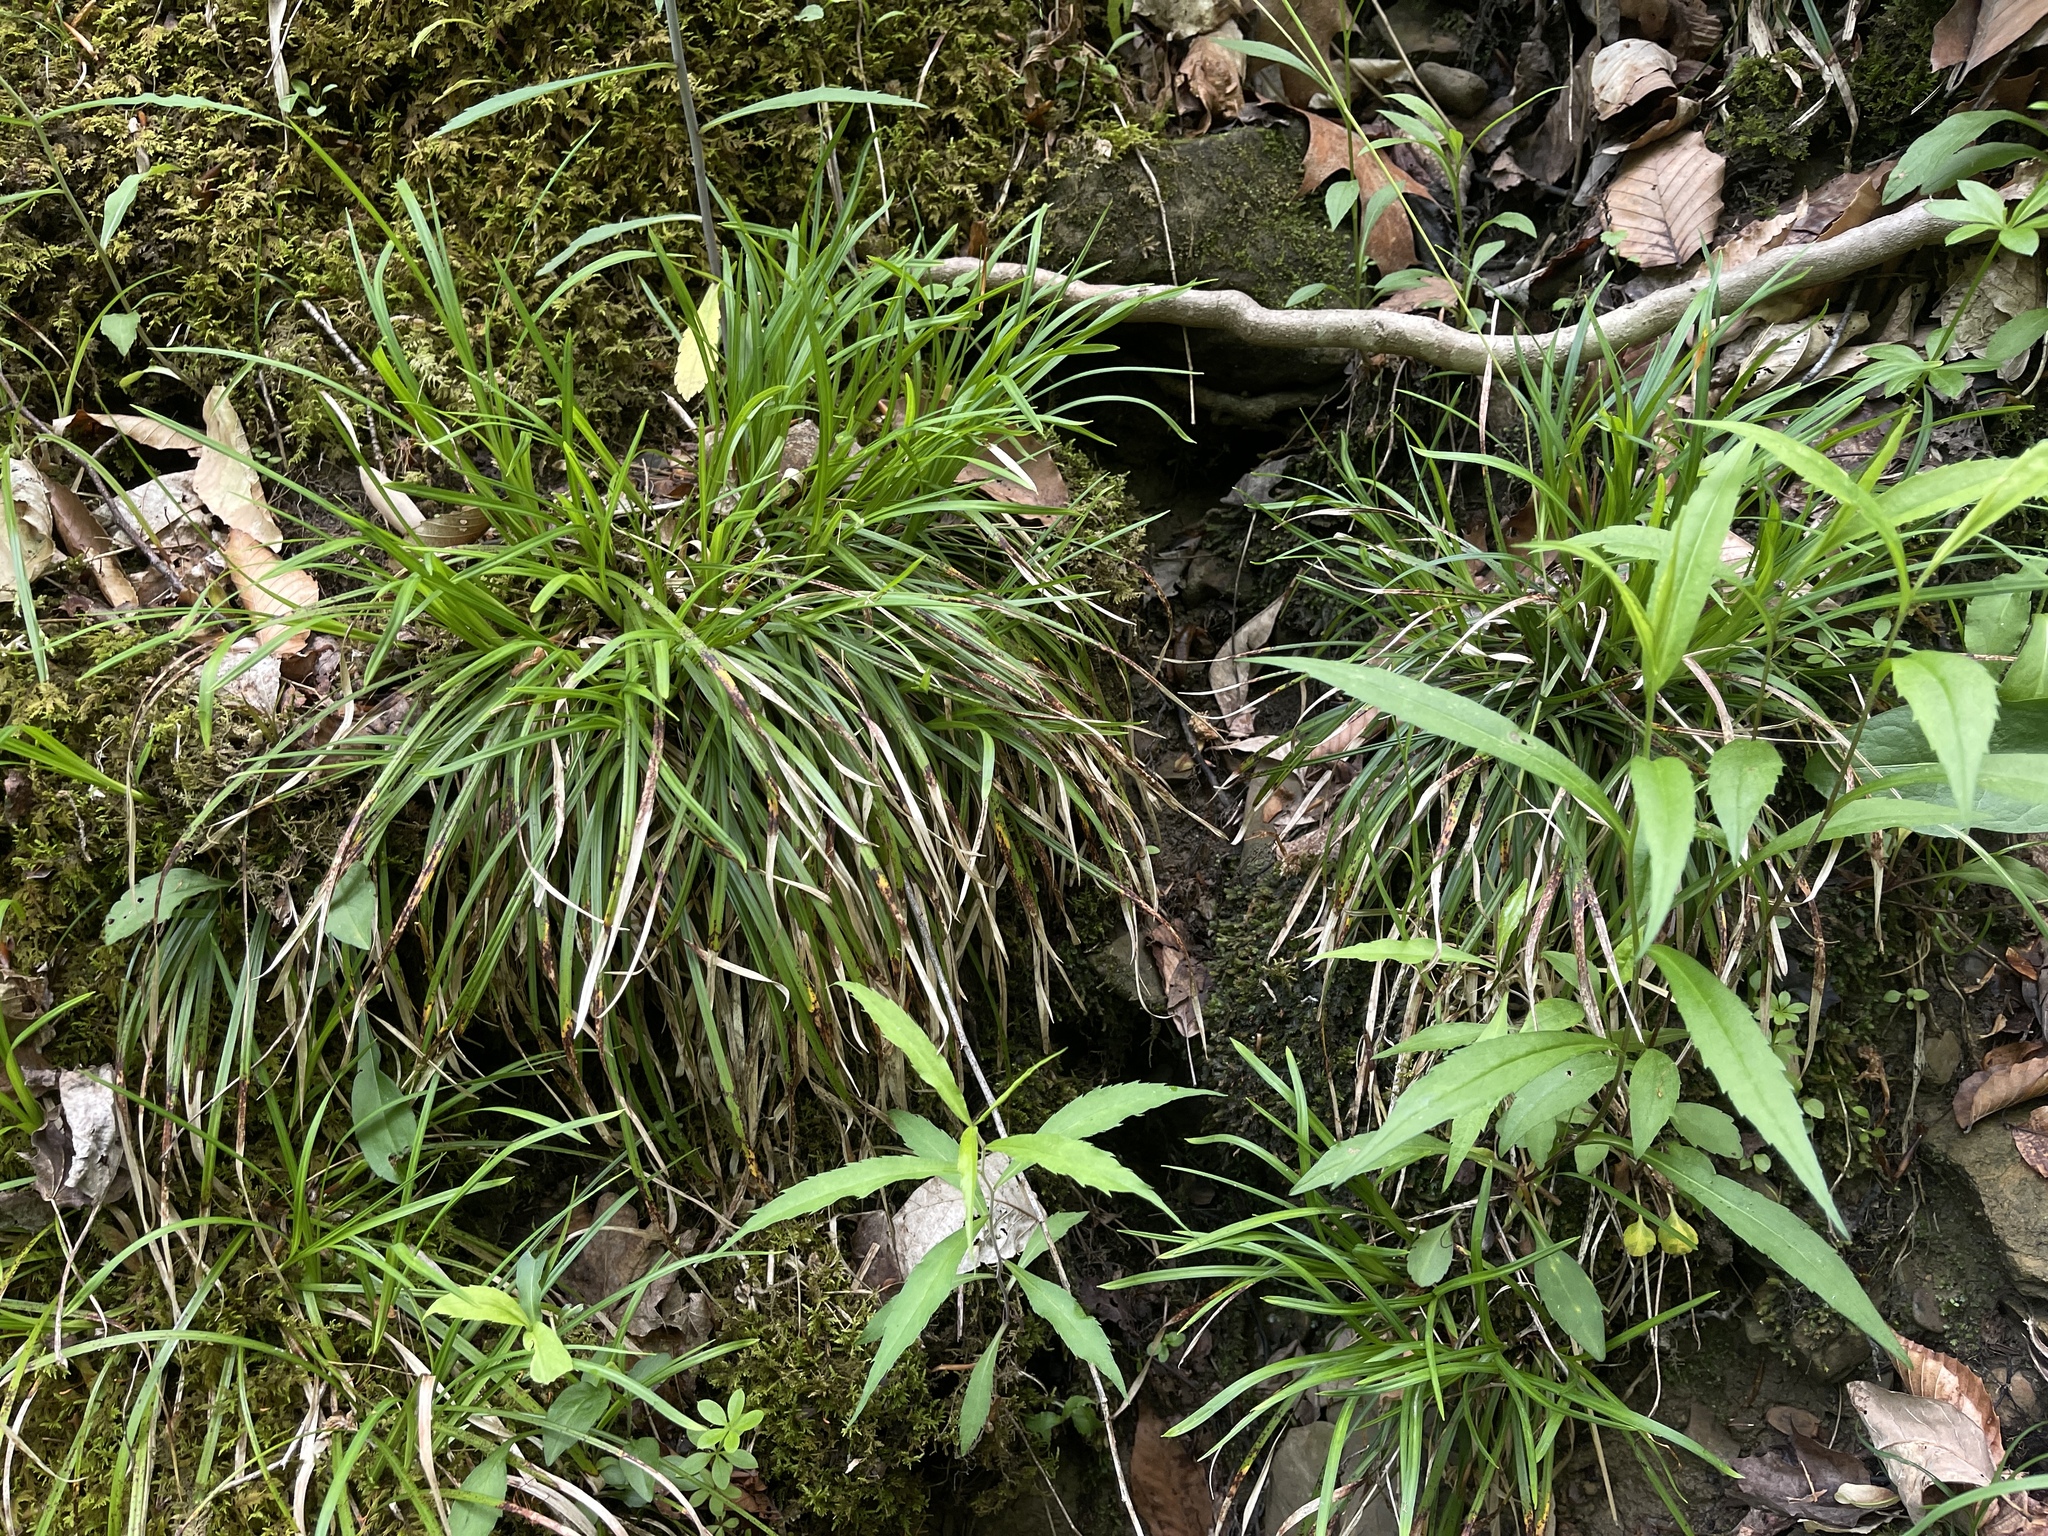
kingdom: Plantae
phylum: Tracheophyta
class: Liliopsida
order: Poales
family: Cyperaceae
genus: Carex
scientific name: Carex pedunculata
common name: Pedunculate sedge
